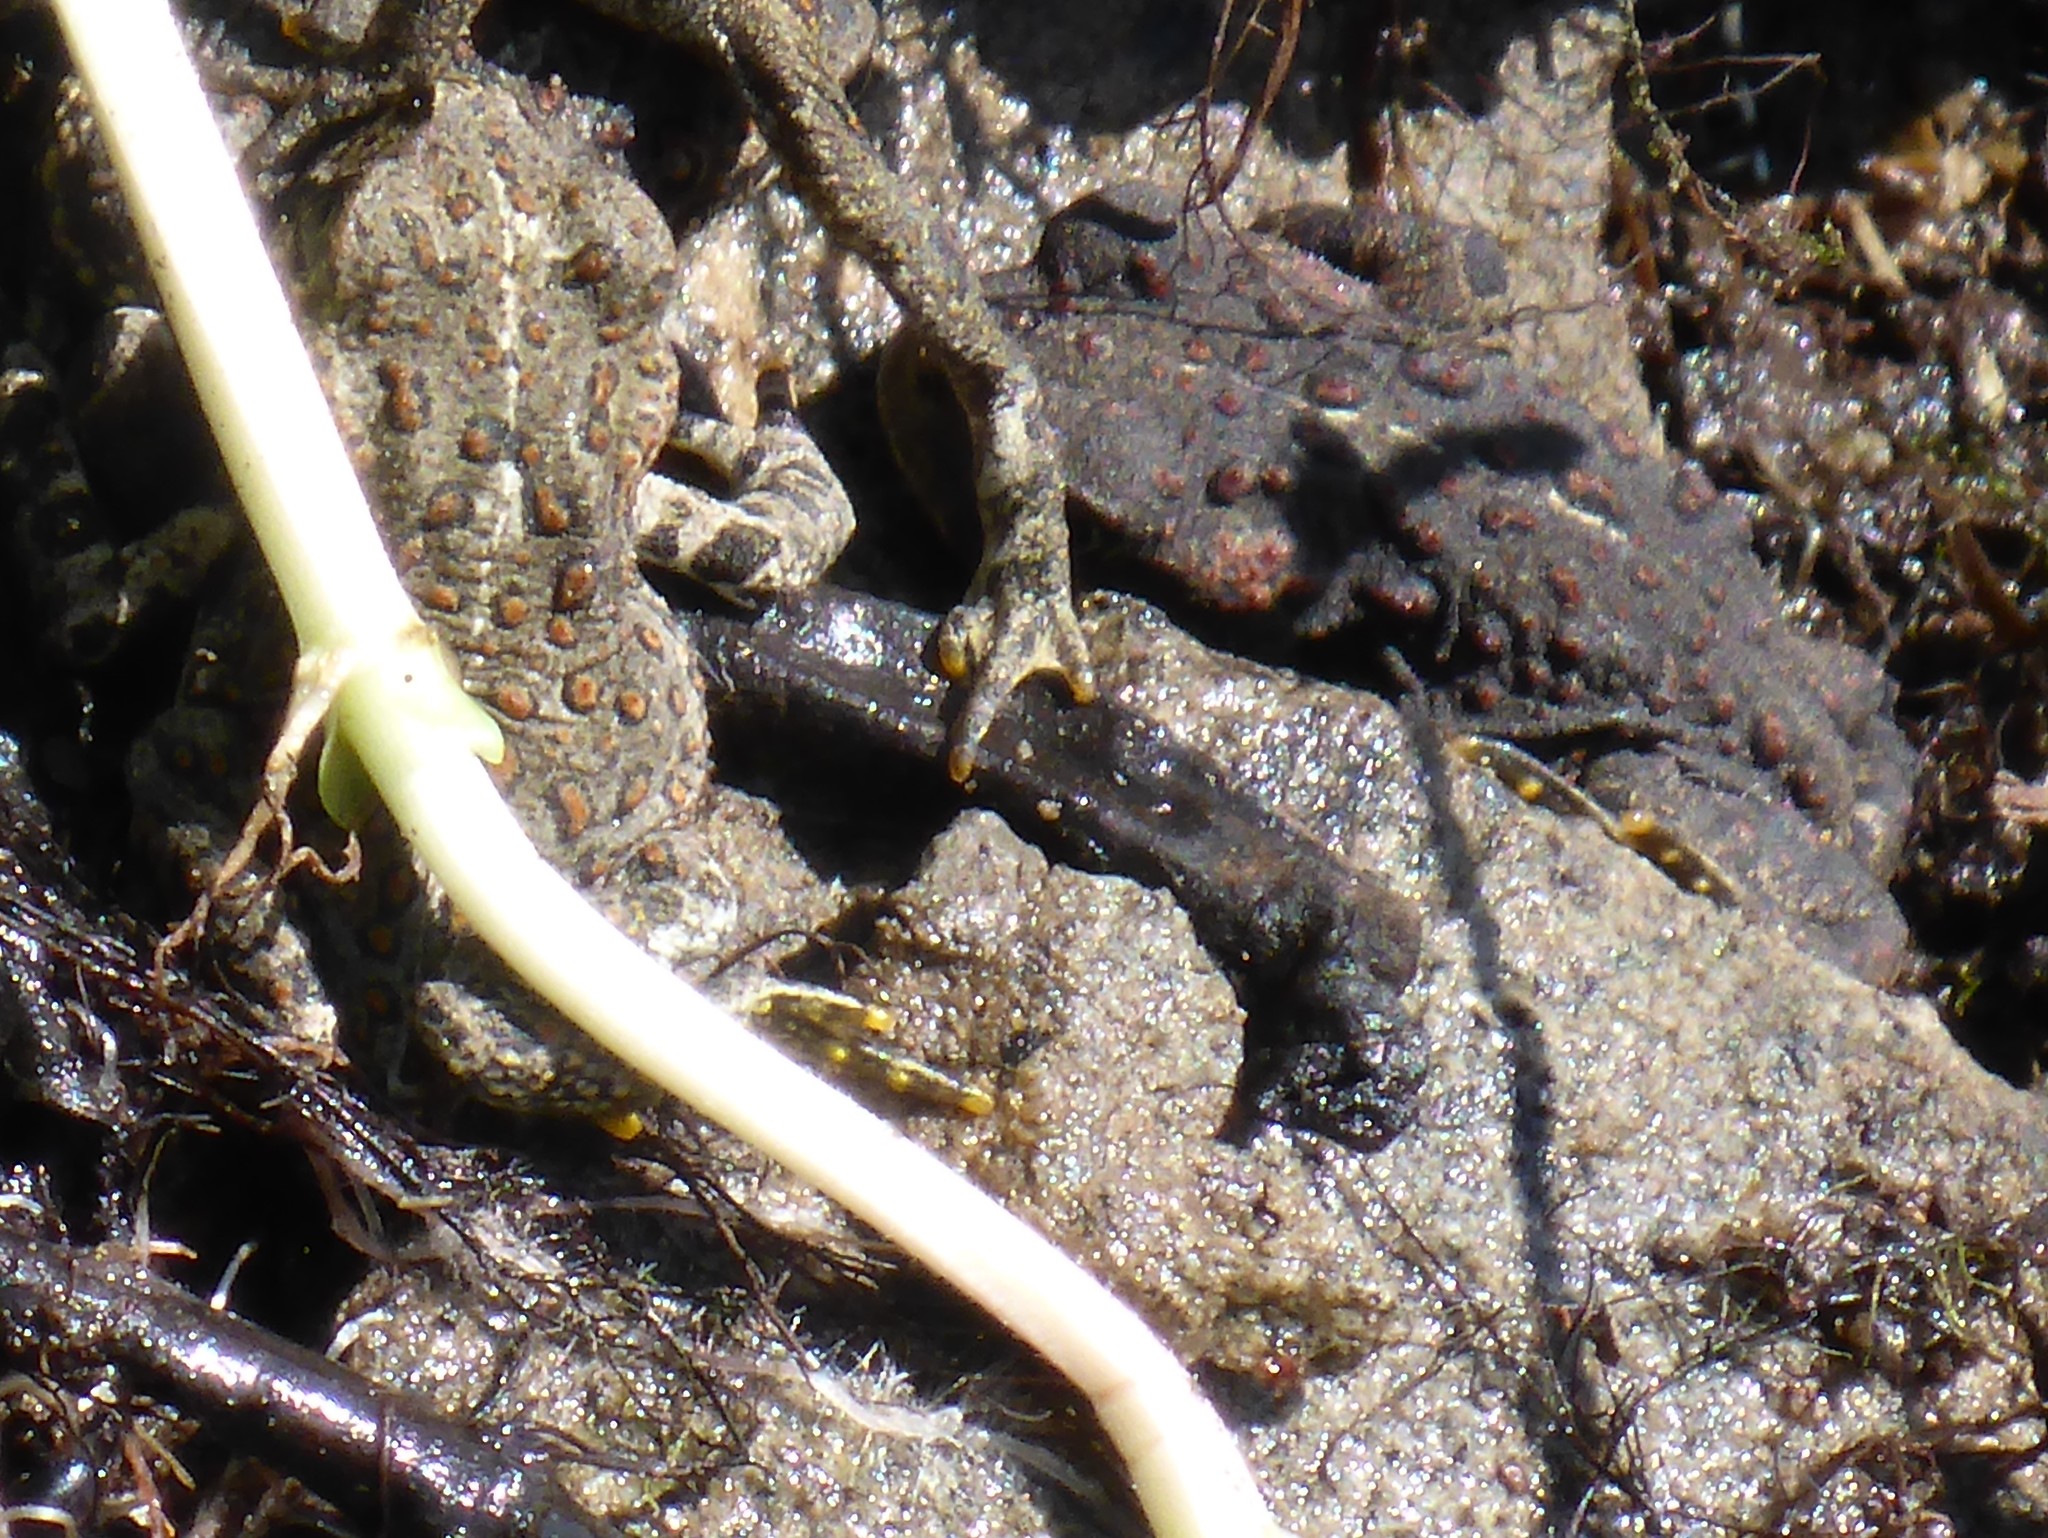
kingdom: Animalia
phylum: Chordata
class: Amphibia
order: Anura
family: Bufonidae
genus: Anaxyrus
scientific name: Anaxyrus boreas
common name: Western toad
